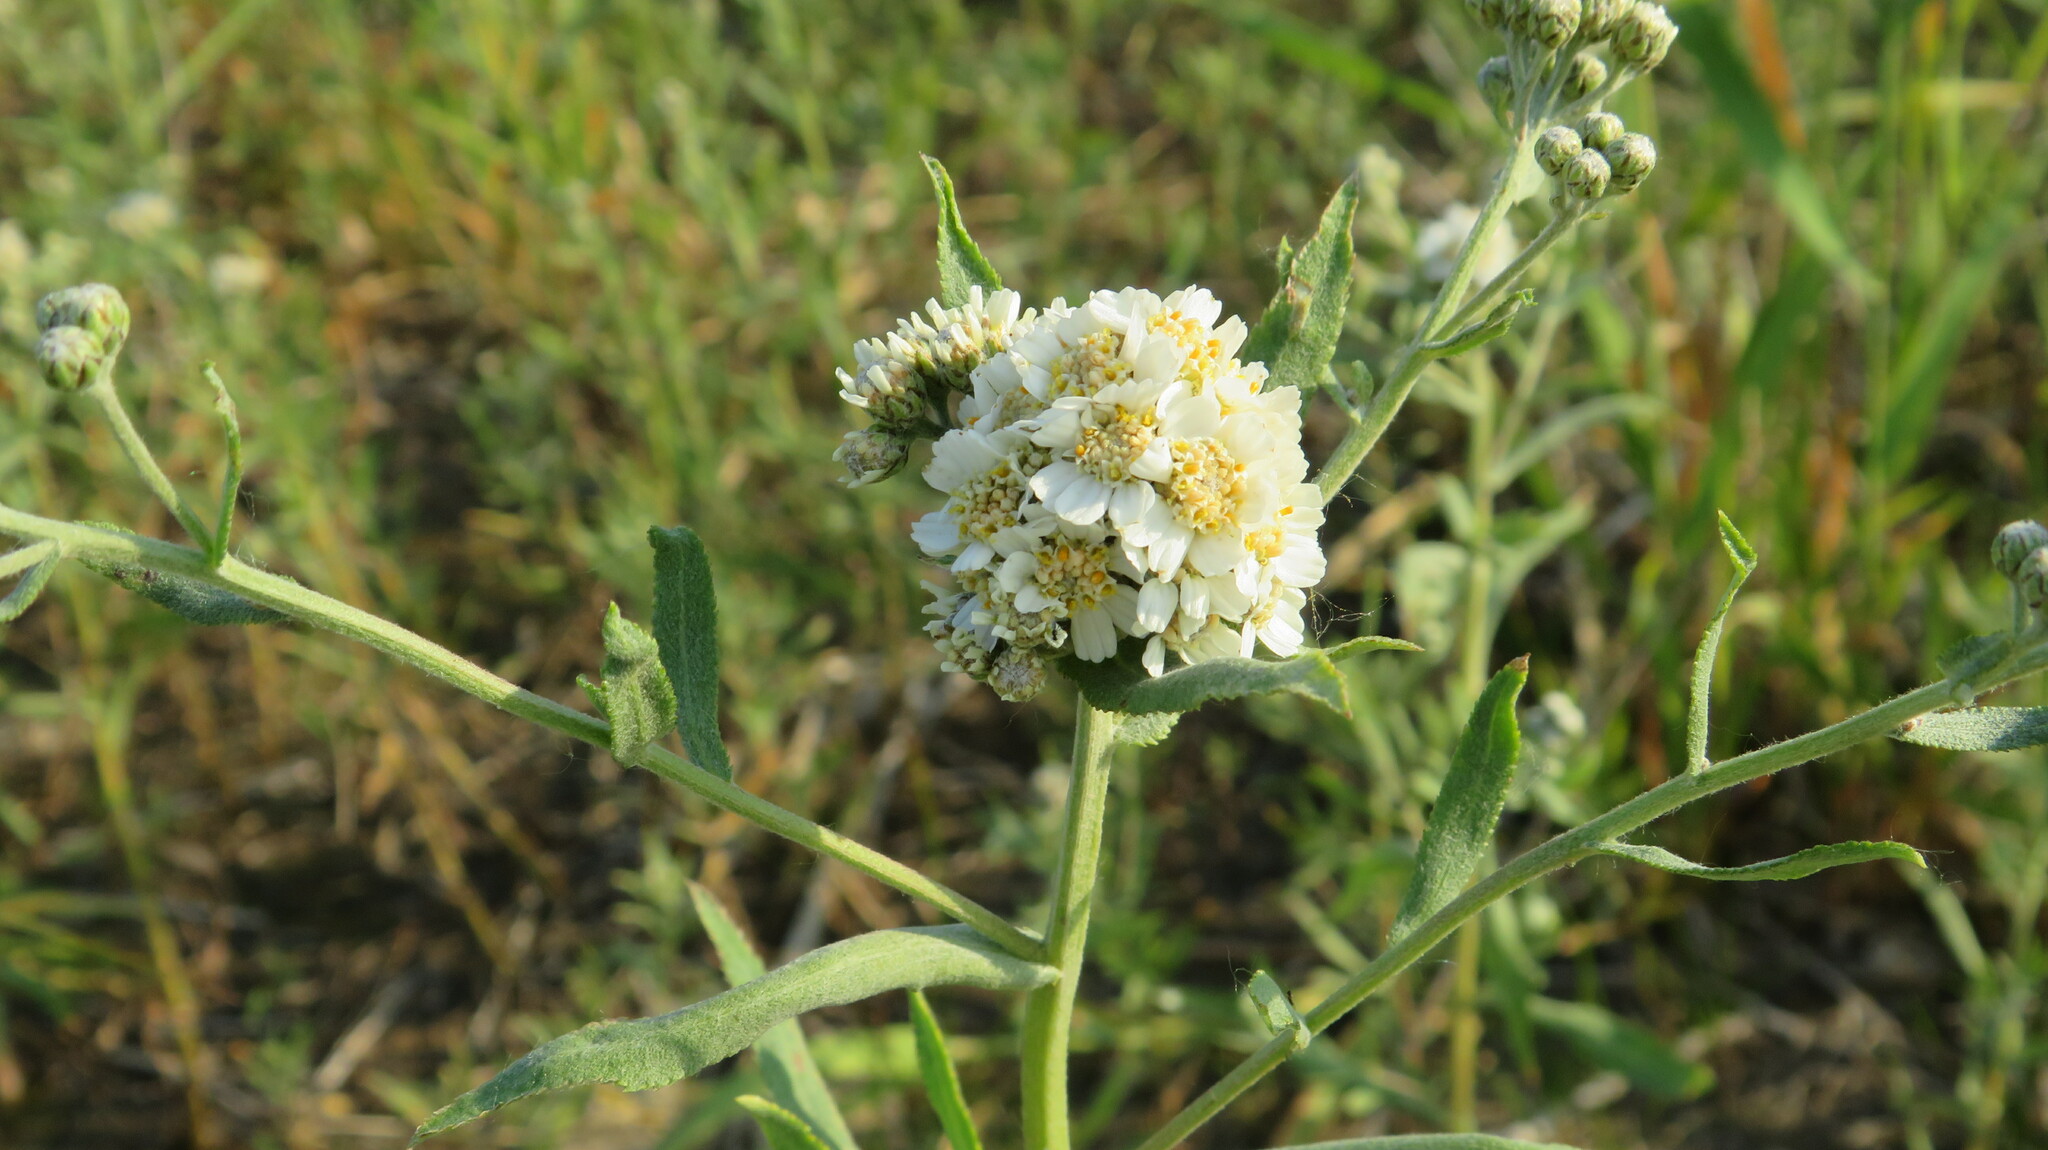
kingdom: Plantae
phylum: Tracheophyta
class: Magnoliopsida
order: Asterales
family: Asteraceae
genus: Achillea
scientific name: Achillea salicifolia
